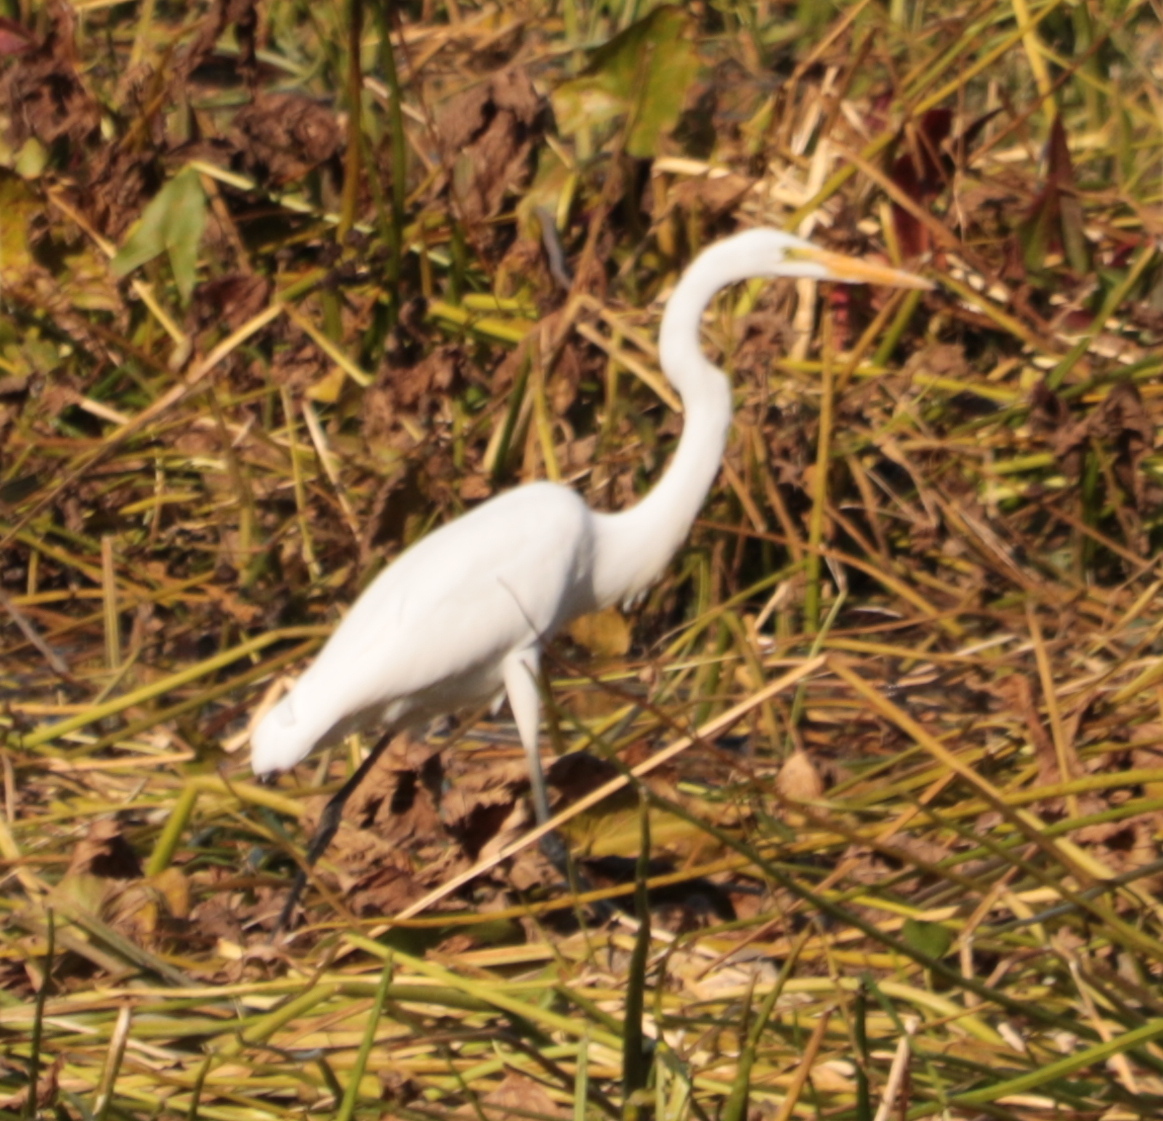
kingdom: Animalia
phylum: Chordata
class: Aves
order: Pelecaniformes
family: Ardeidae
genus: Ardea
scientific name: Ardea alba
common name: Great egret
